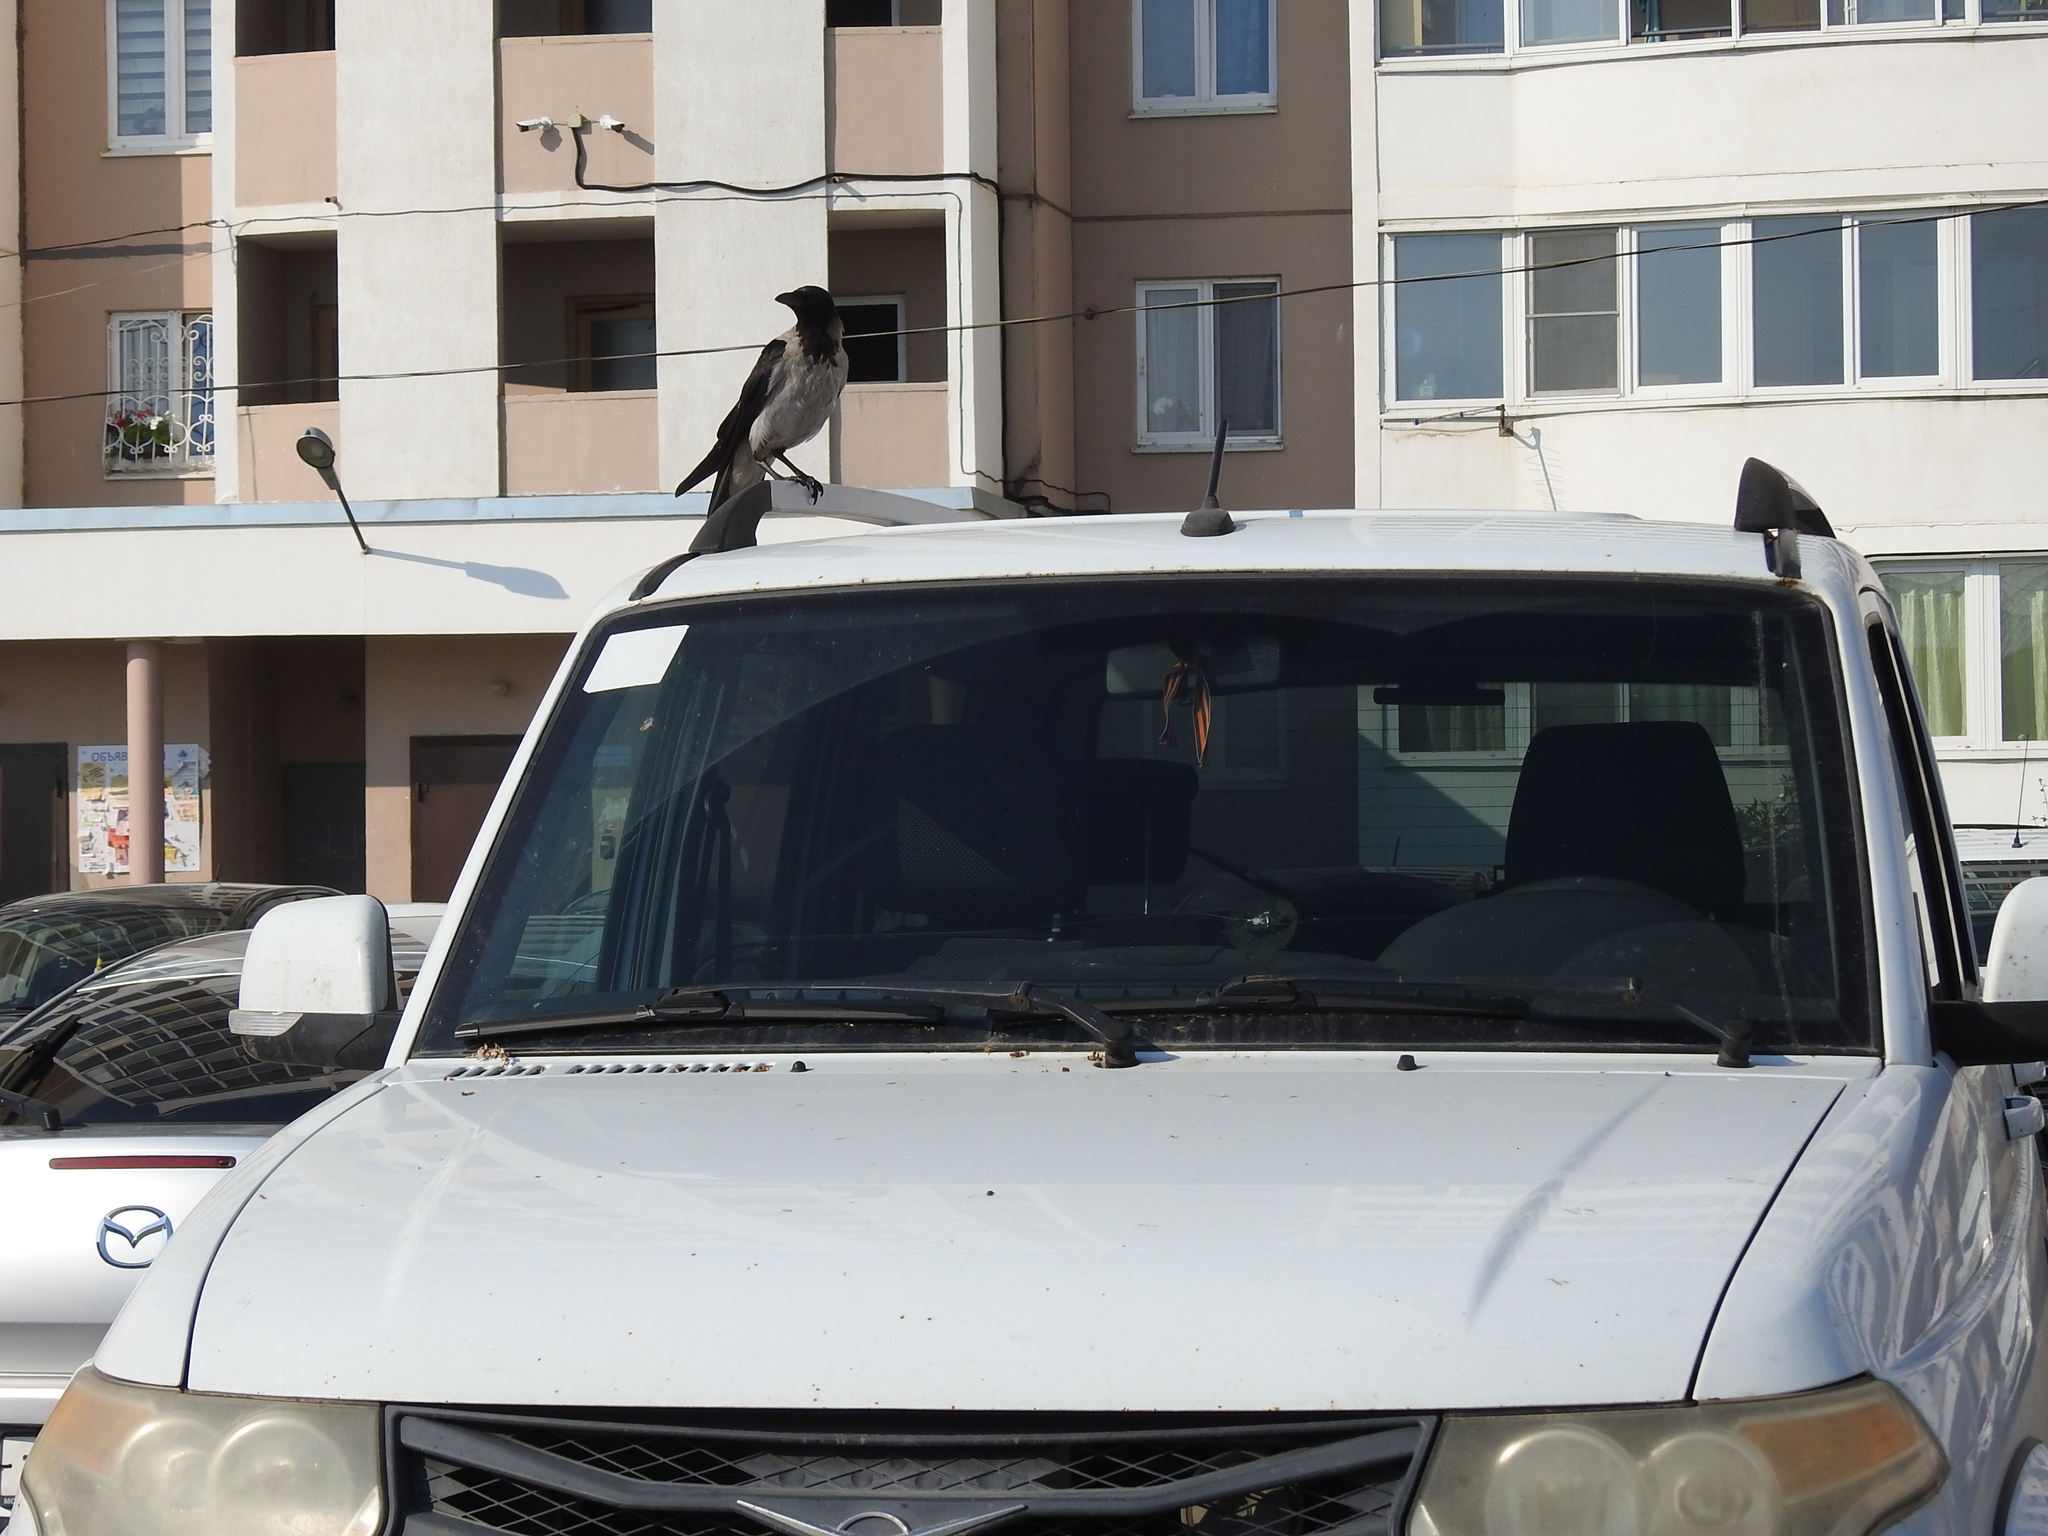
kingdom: Animalia
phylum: Chordata
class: Aves
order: Passeriformes
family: Corvidae
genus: Corvus
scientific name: Corvus cornix
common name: Hooded crow
